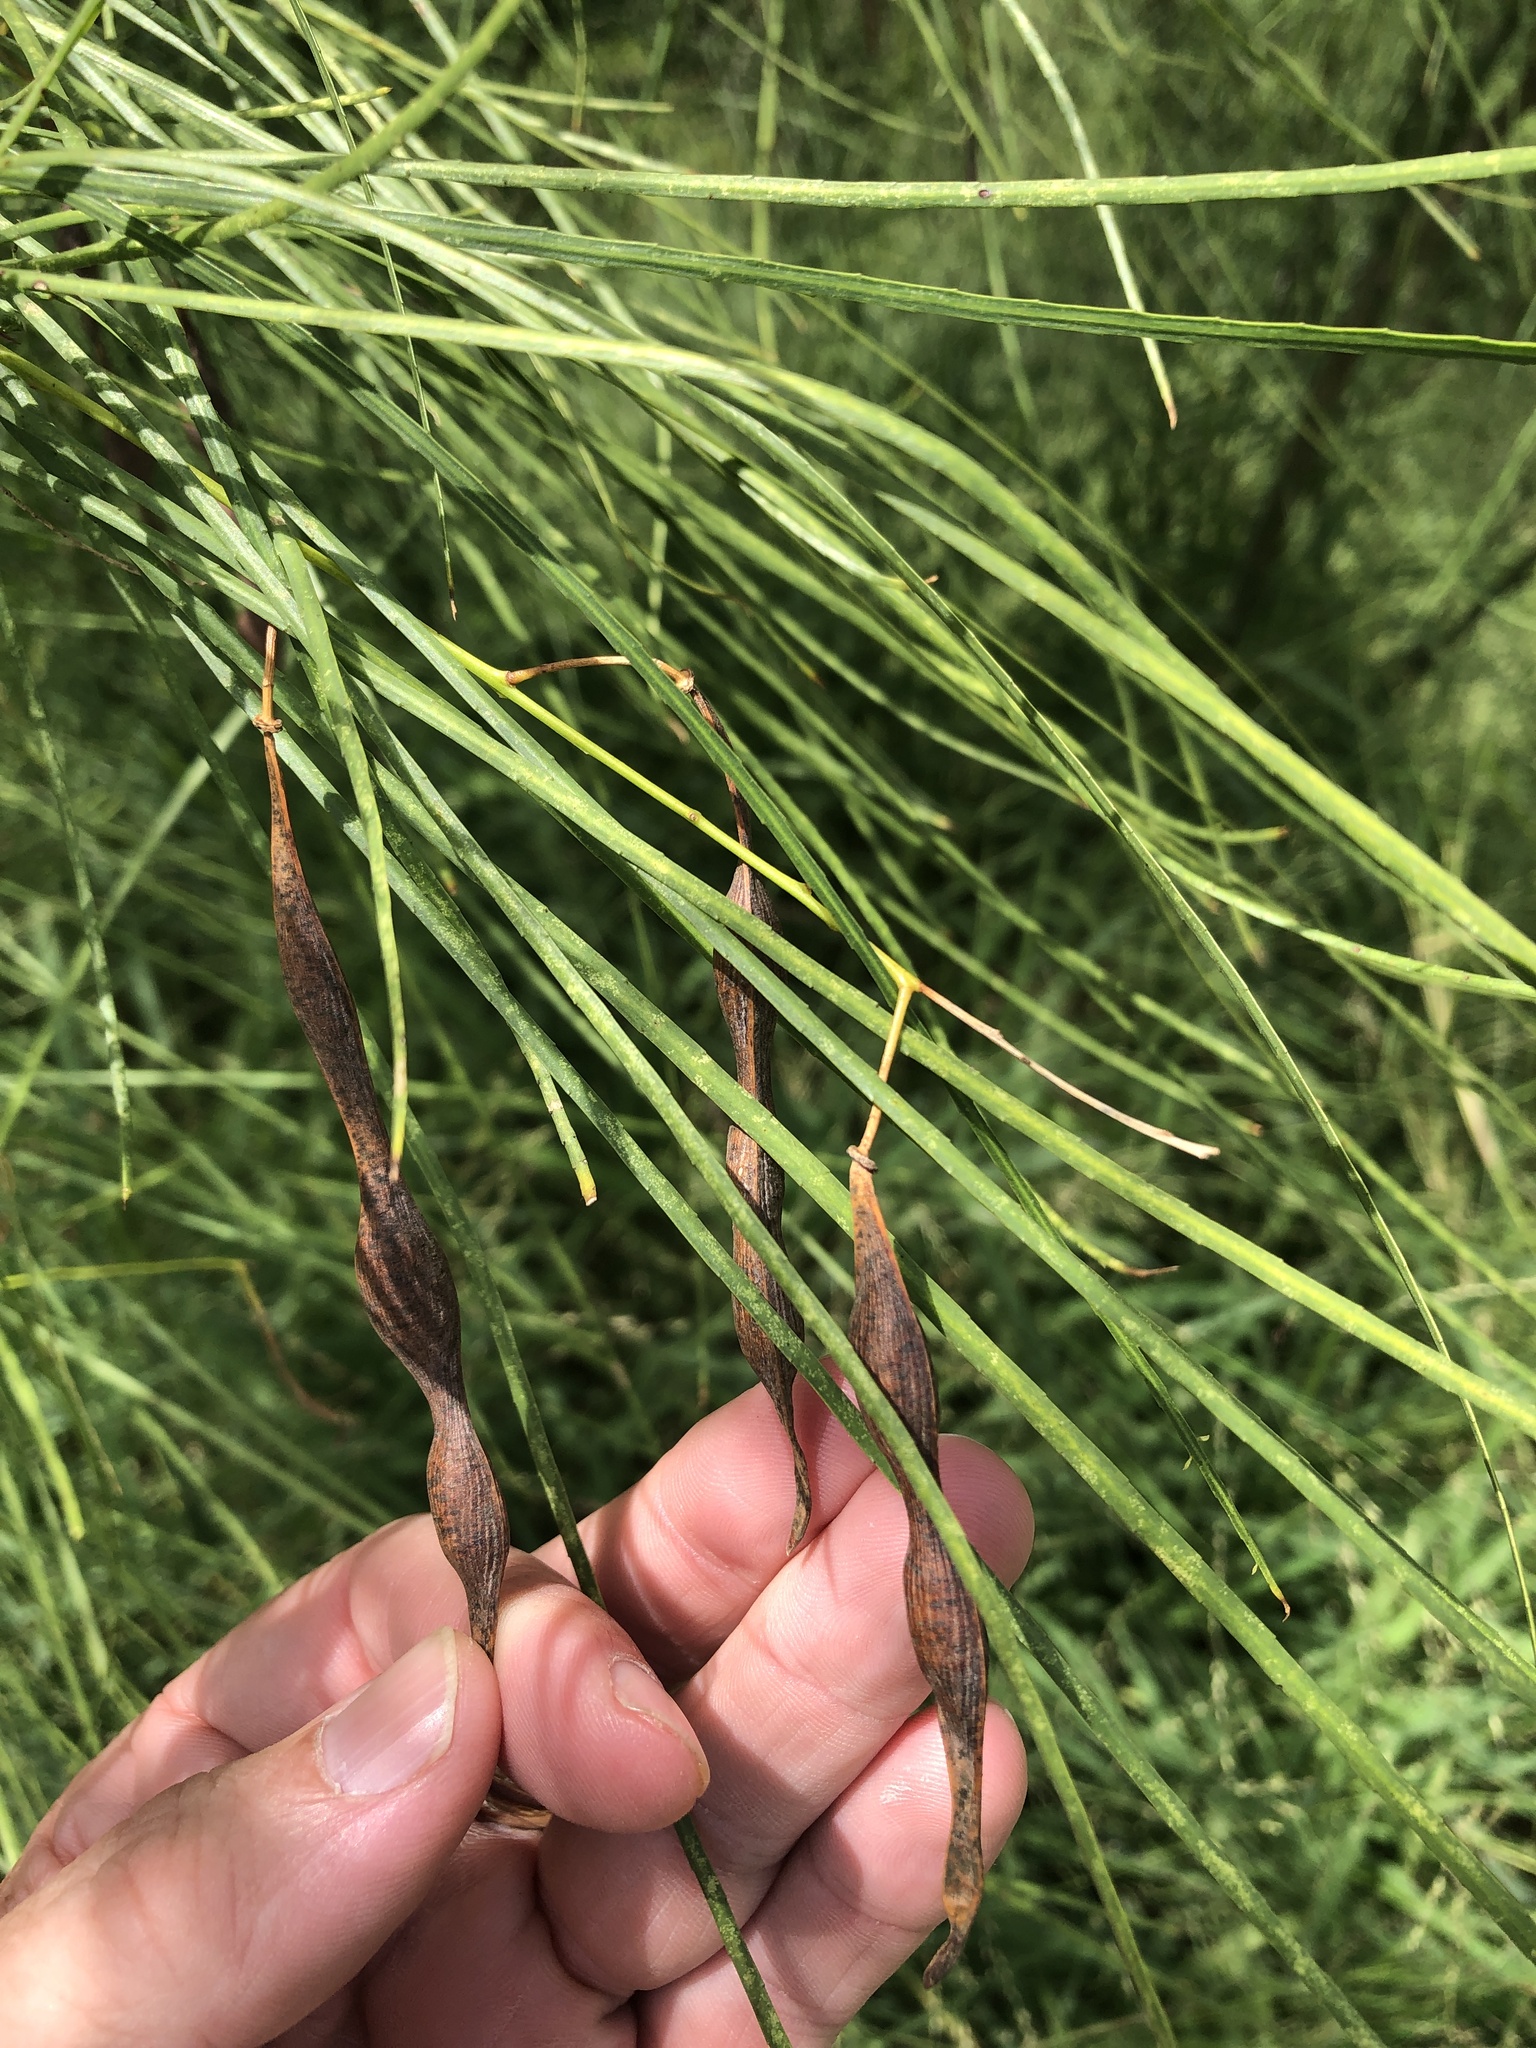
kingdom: Plantae
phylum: Tracheophyta
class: Magnoliopsida
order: Fabales
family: Fabaceae
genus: Parkinsonia
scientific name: Parkinsonia aculeata
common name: Jerusalem thorn
